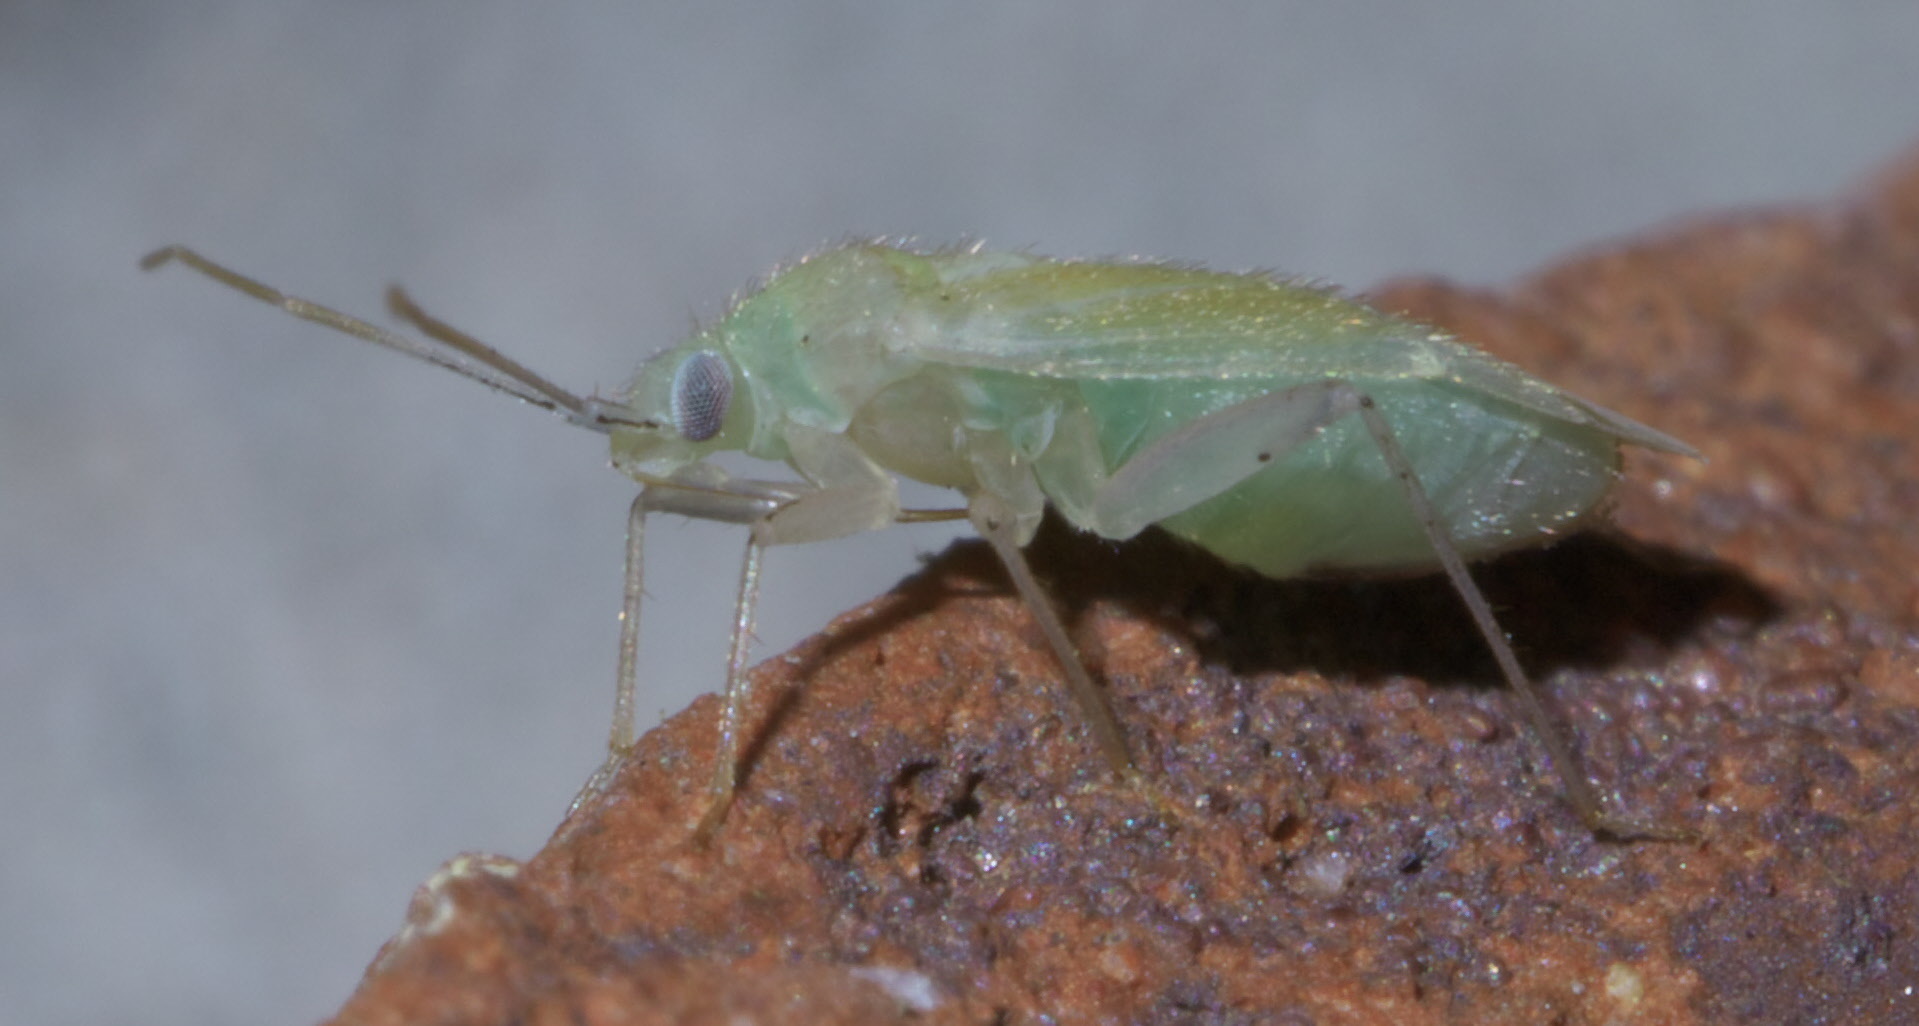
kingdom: Animalia
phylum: Arthropoda
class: Insecta
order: Hemiptera
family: Miridae
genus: Americodema
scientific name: Americodema nigrolineatum
